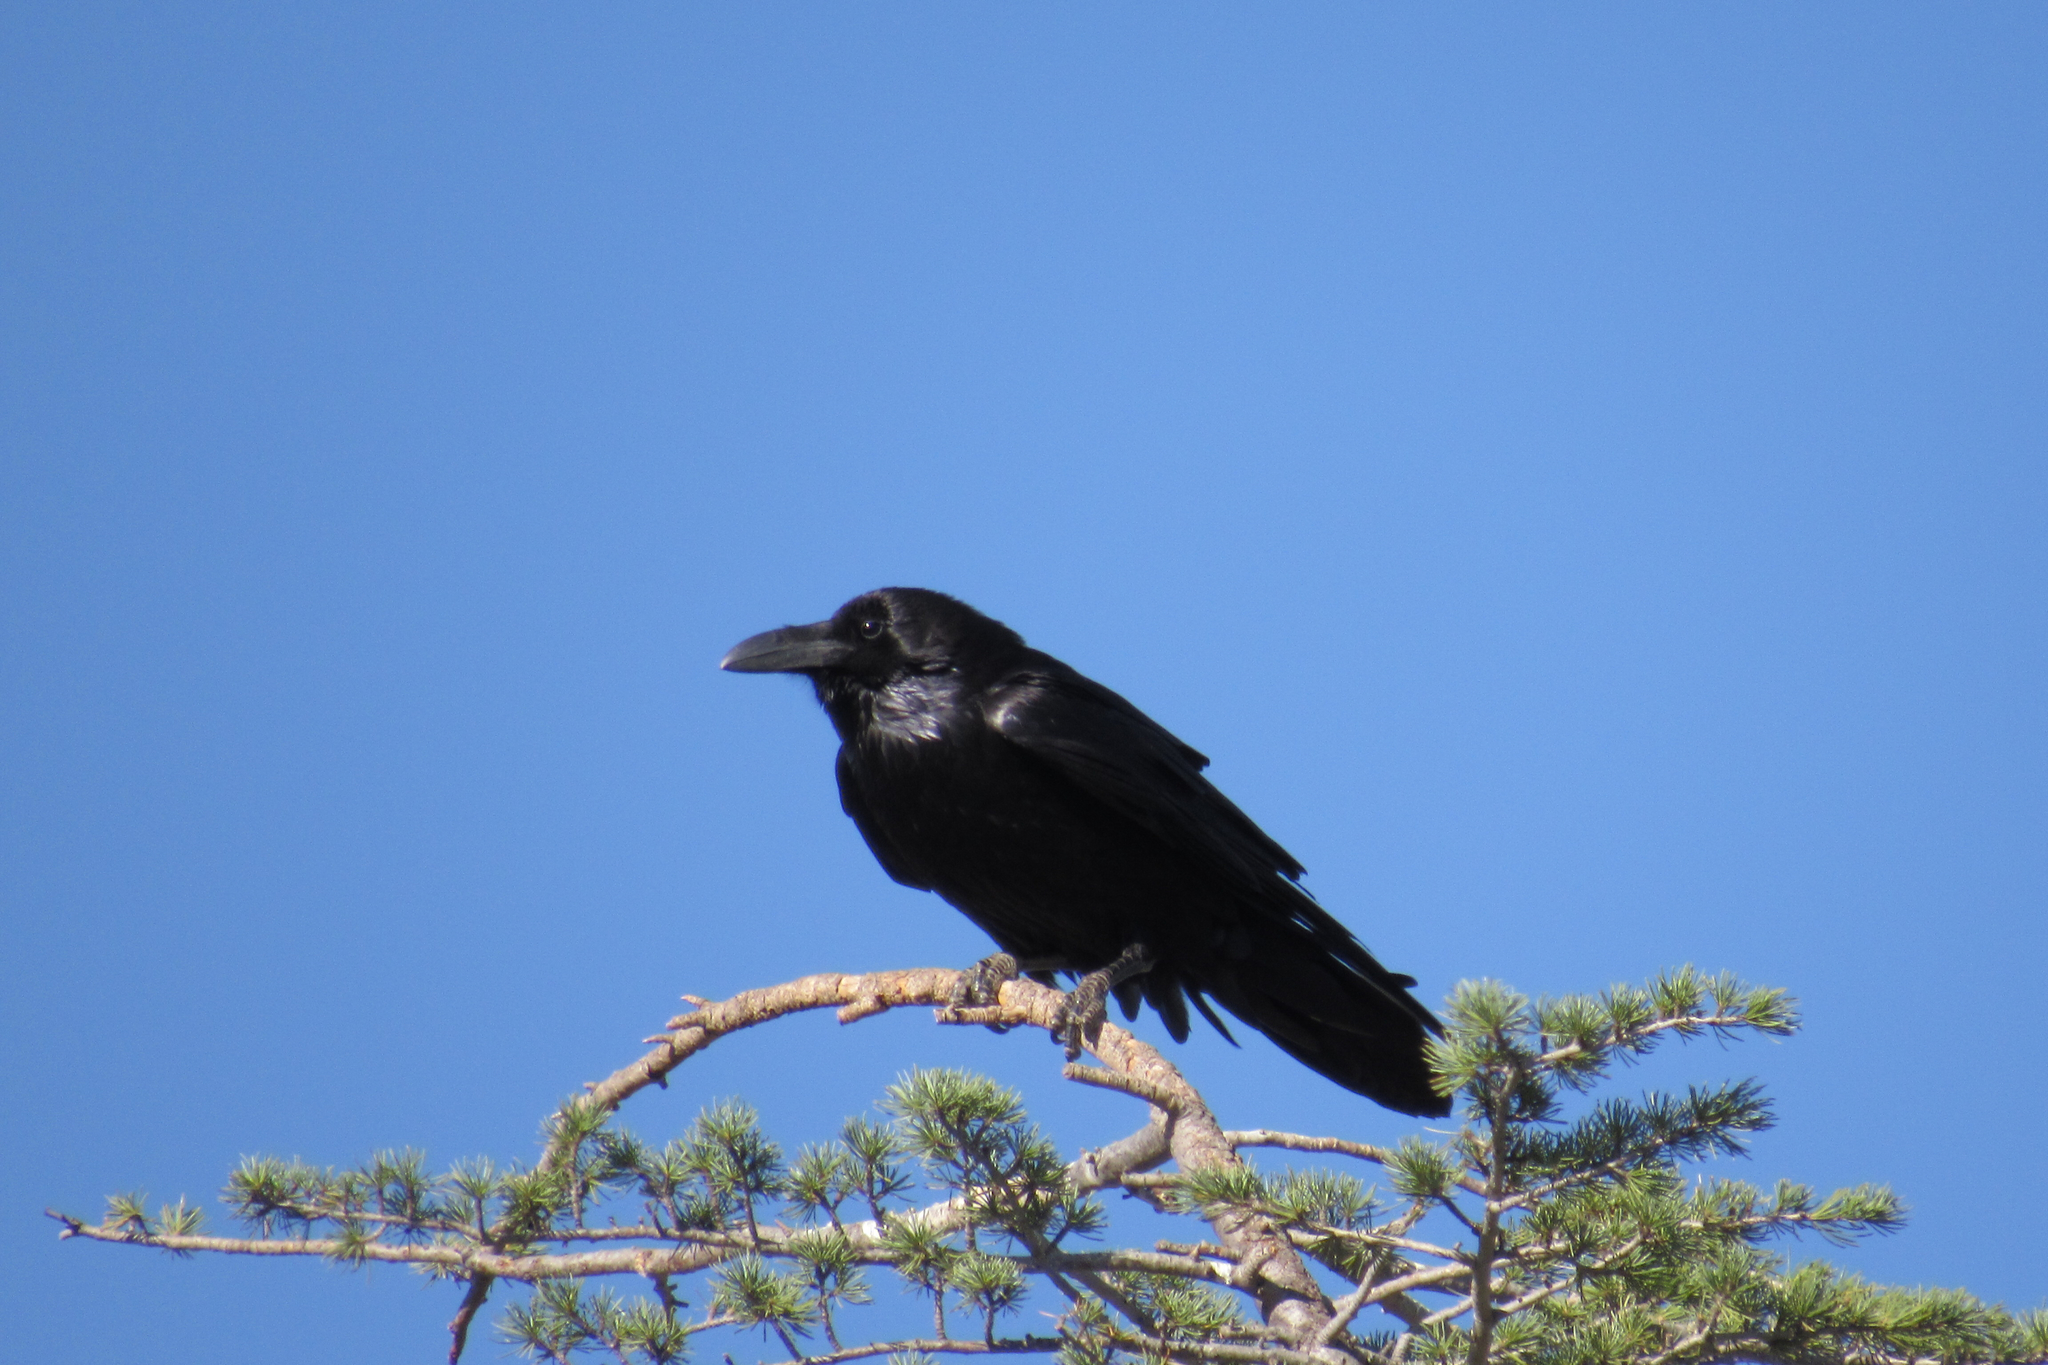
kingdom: Animalia
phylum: Chordata
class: Aves
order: Passeriformes
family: Corvidae
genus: Corvus
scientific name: Corvus corax
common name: Common raven
